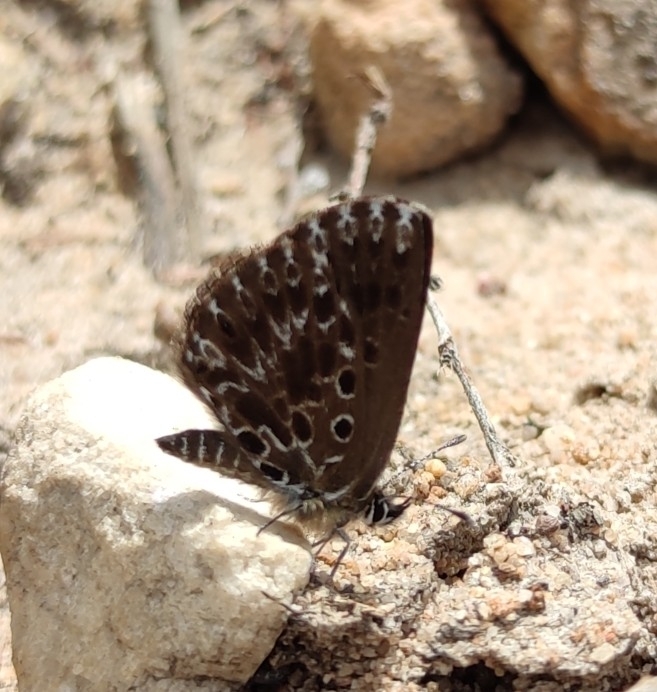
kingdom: Animalia
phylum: Arthropoda
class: Insecta
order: Lepidoptera
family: Lycaenidae
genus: Lepidochrysops
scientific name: Lepidochrysops puncticilia
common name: Mouse blue
